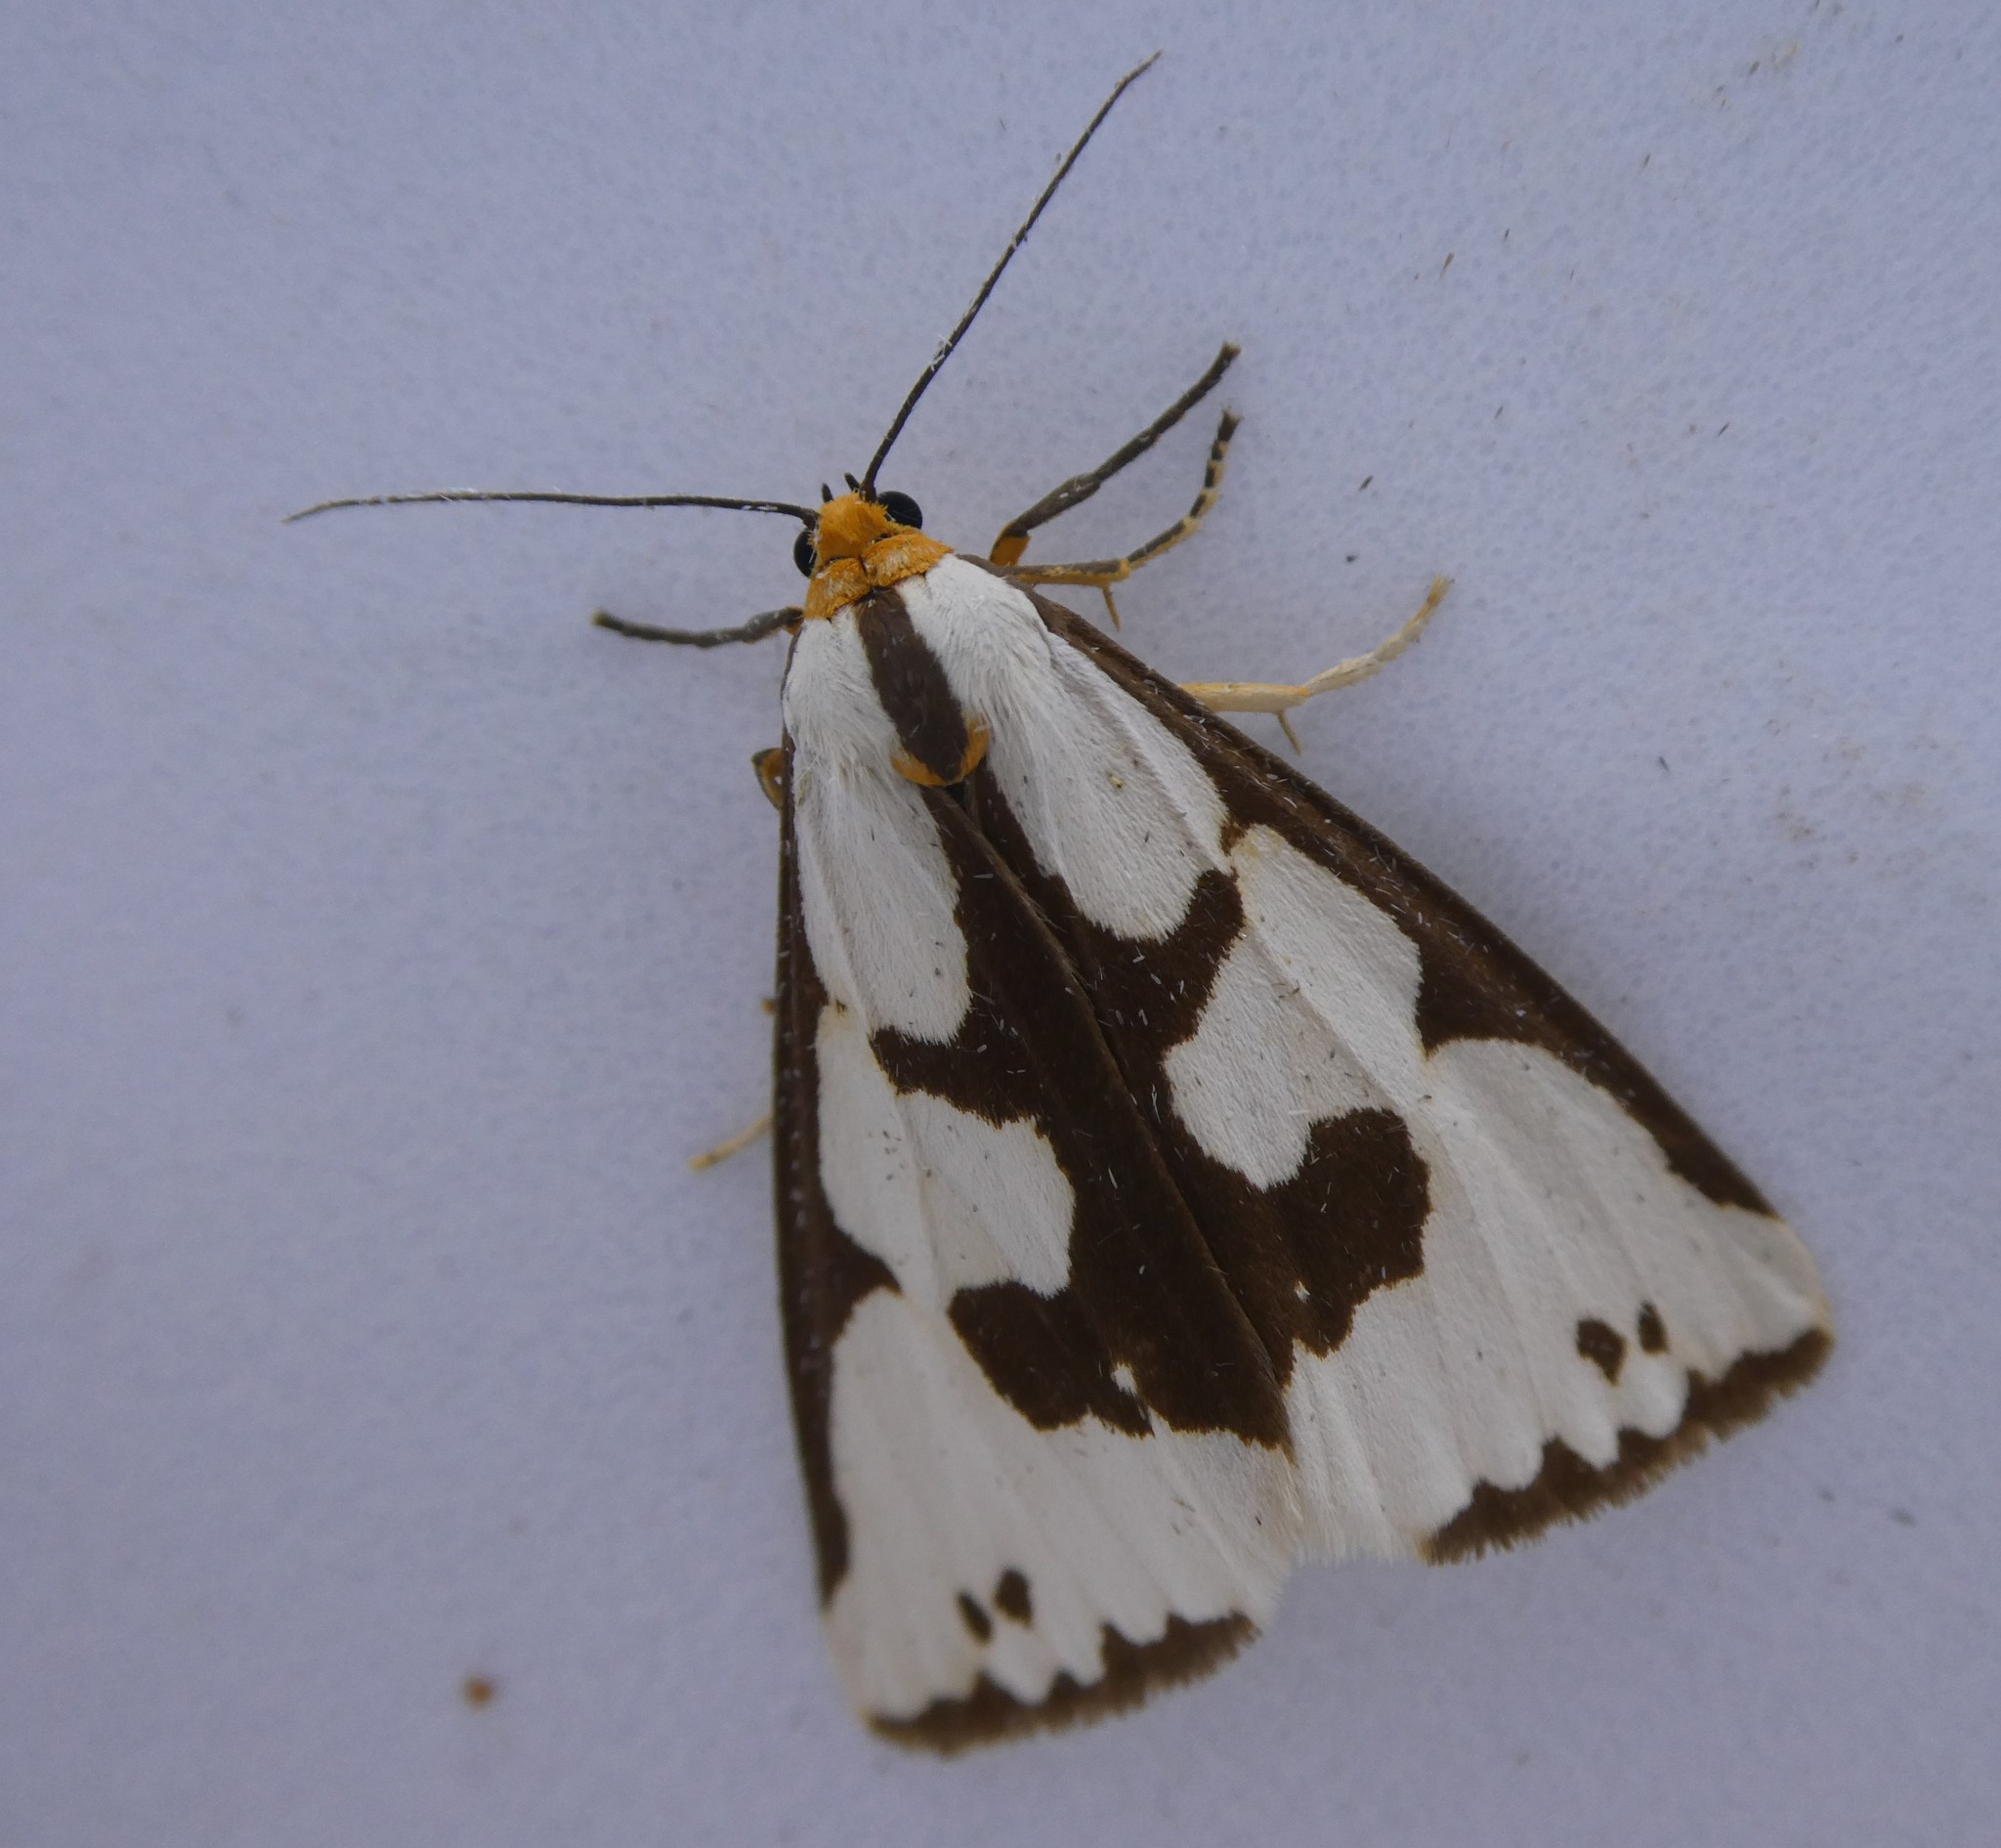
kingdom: Animalia
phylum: Arthropoda
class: Insecta
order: Lepidoptera
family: Erebidae
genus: Haploa
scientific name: Haploa lecontei
